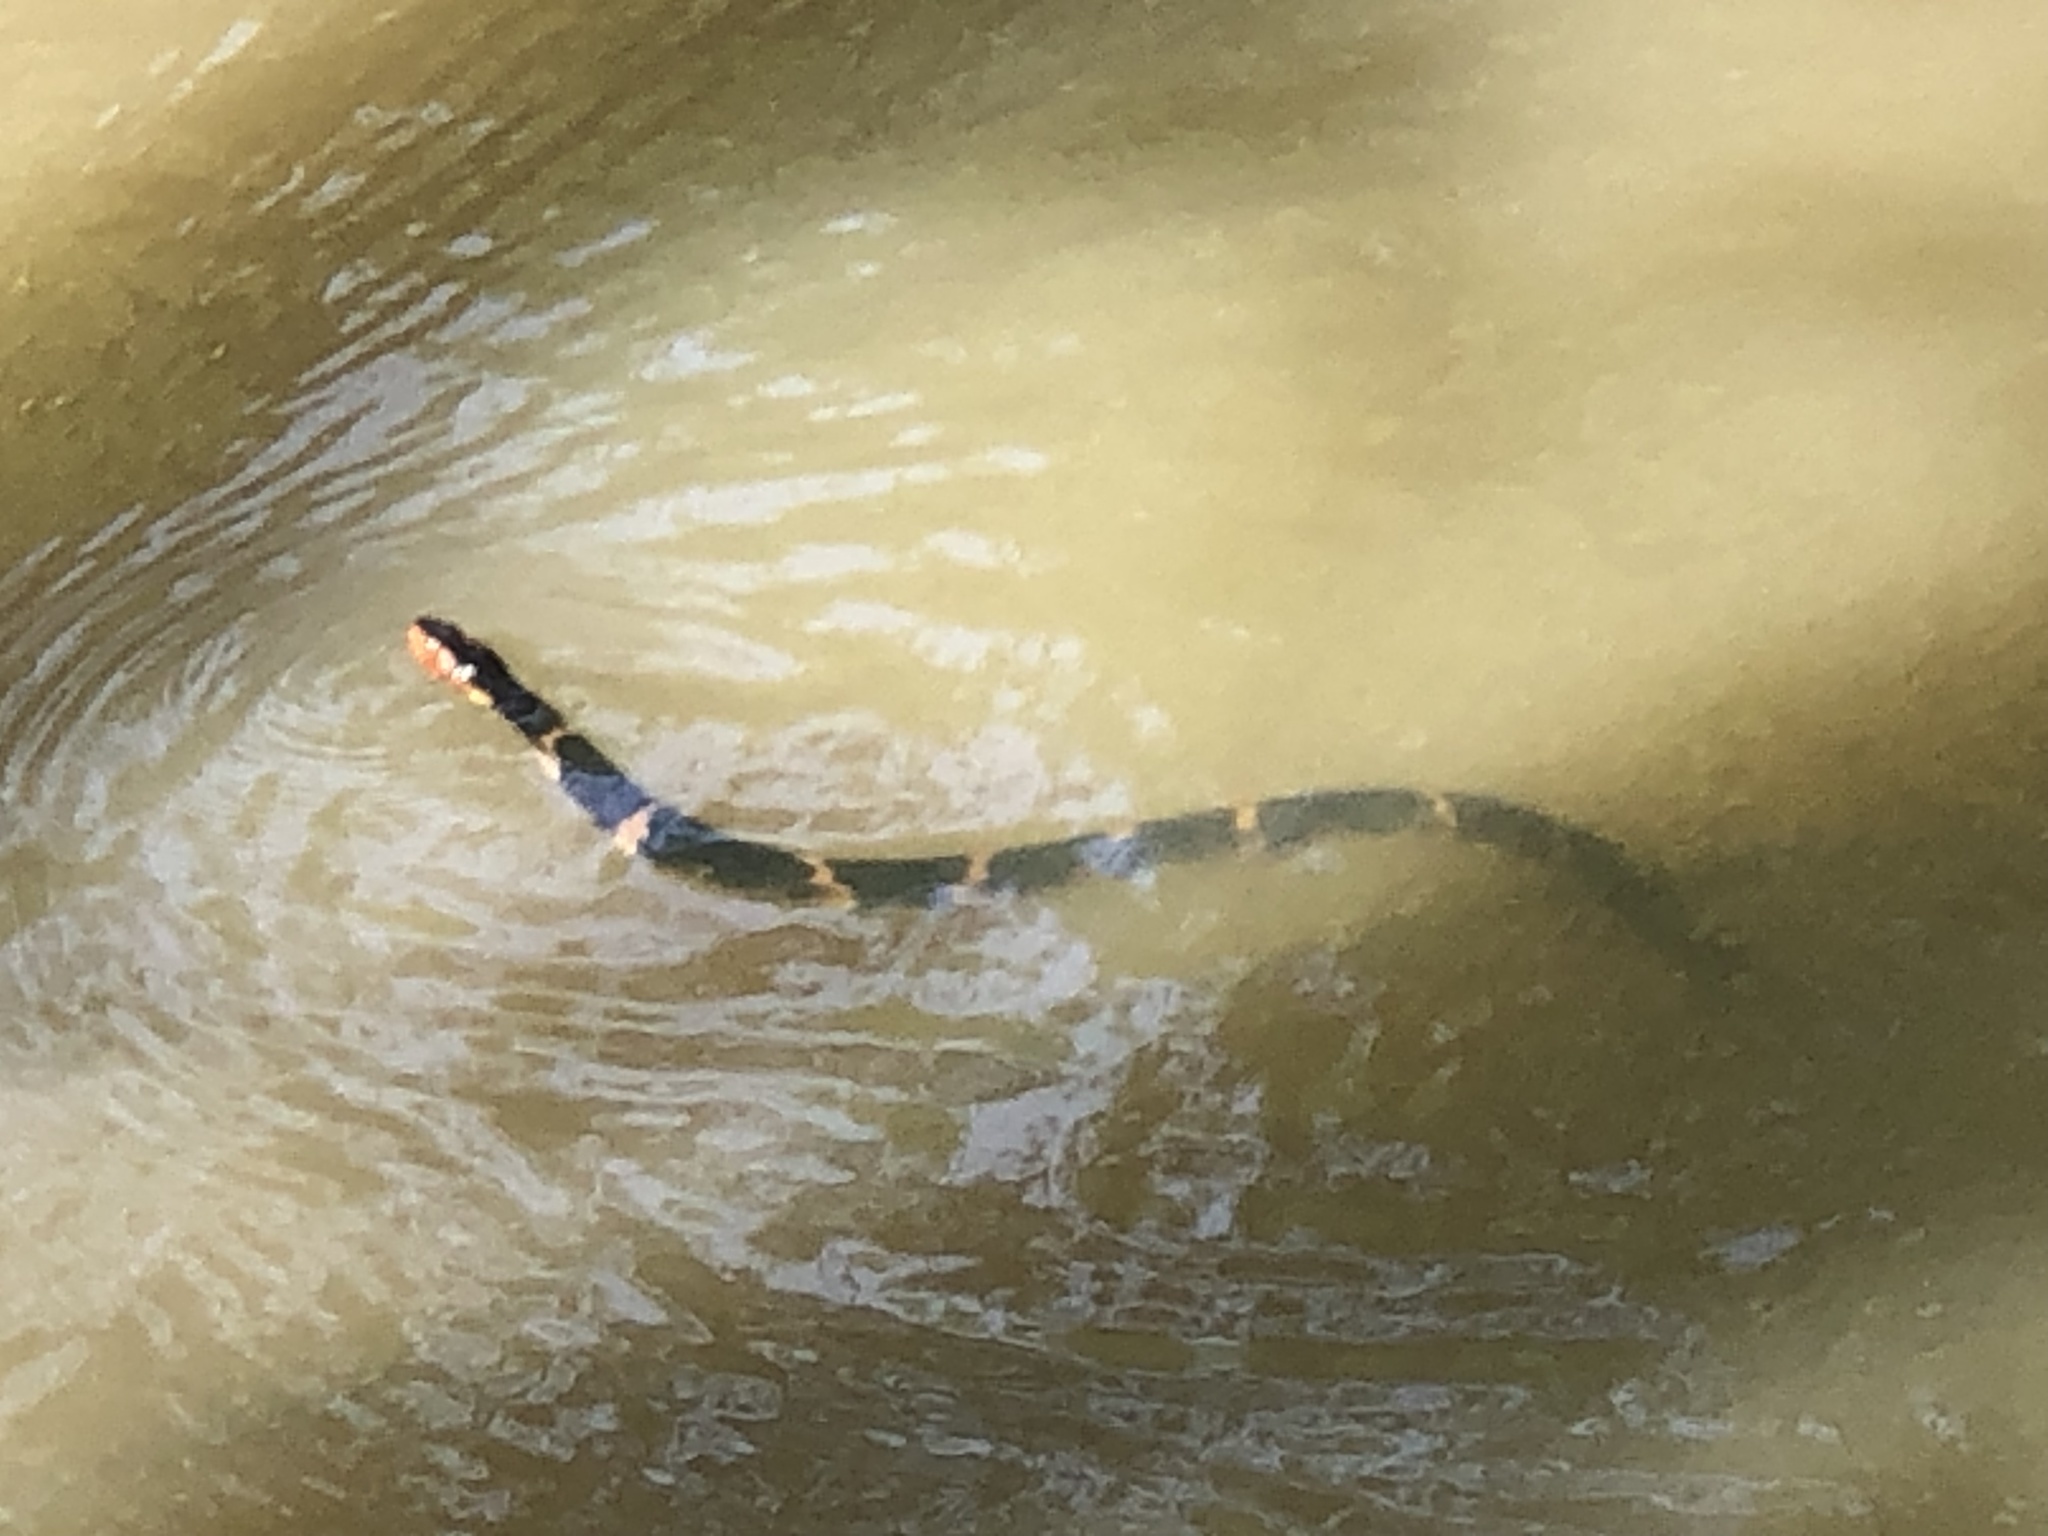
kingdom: Animalia
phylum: Chordata
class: Squamata
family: Colubridae
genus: Nerodia
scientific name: Nerodia fasciata
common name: Southern water snake
